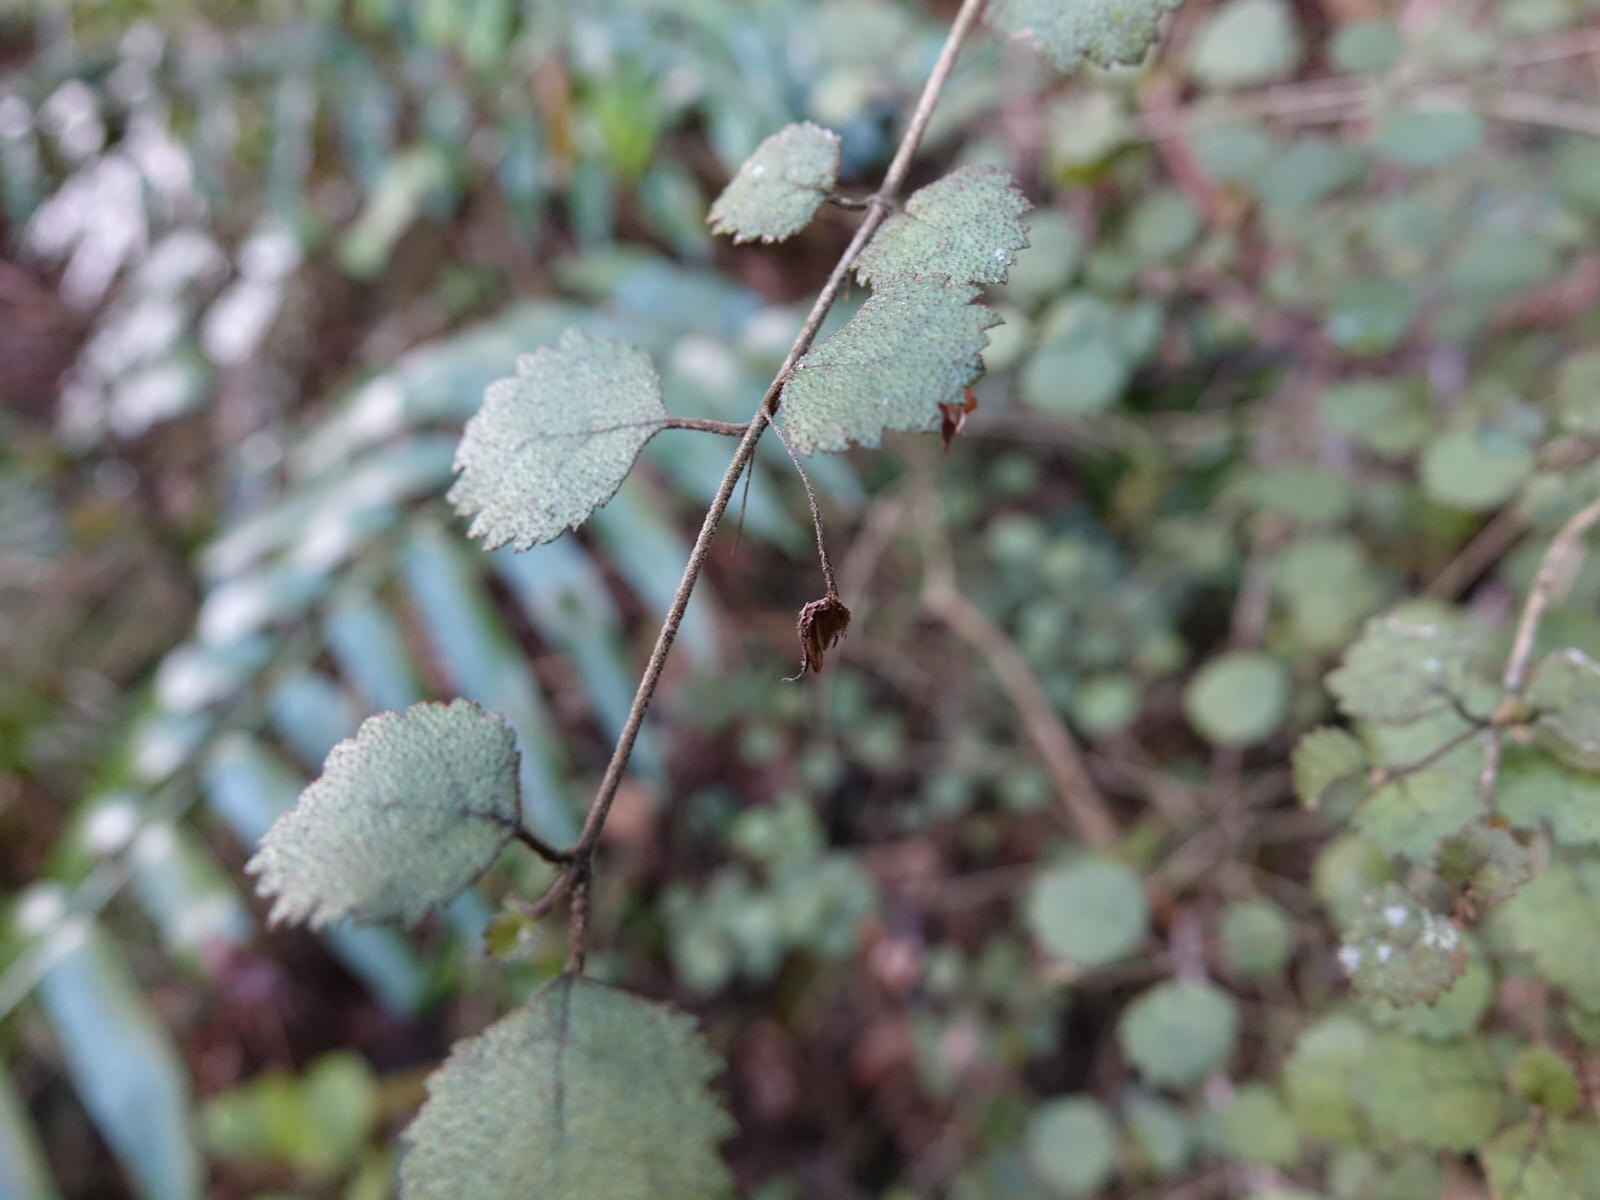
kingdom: Plantae
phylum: Tracheophyta
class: Magnoliopsida
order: Lamiales
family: Gesneriaceae
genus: Rhabdothamnus
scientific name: Rhabdothamnus solandri
